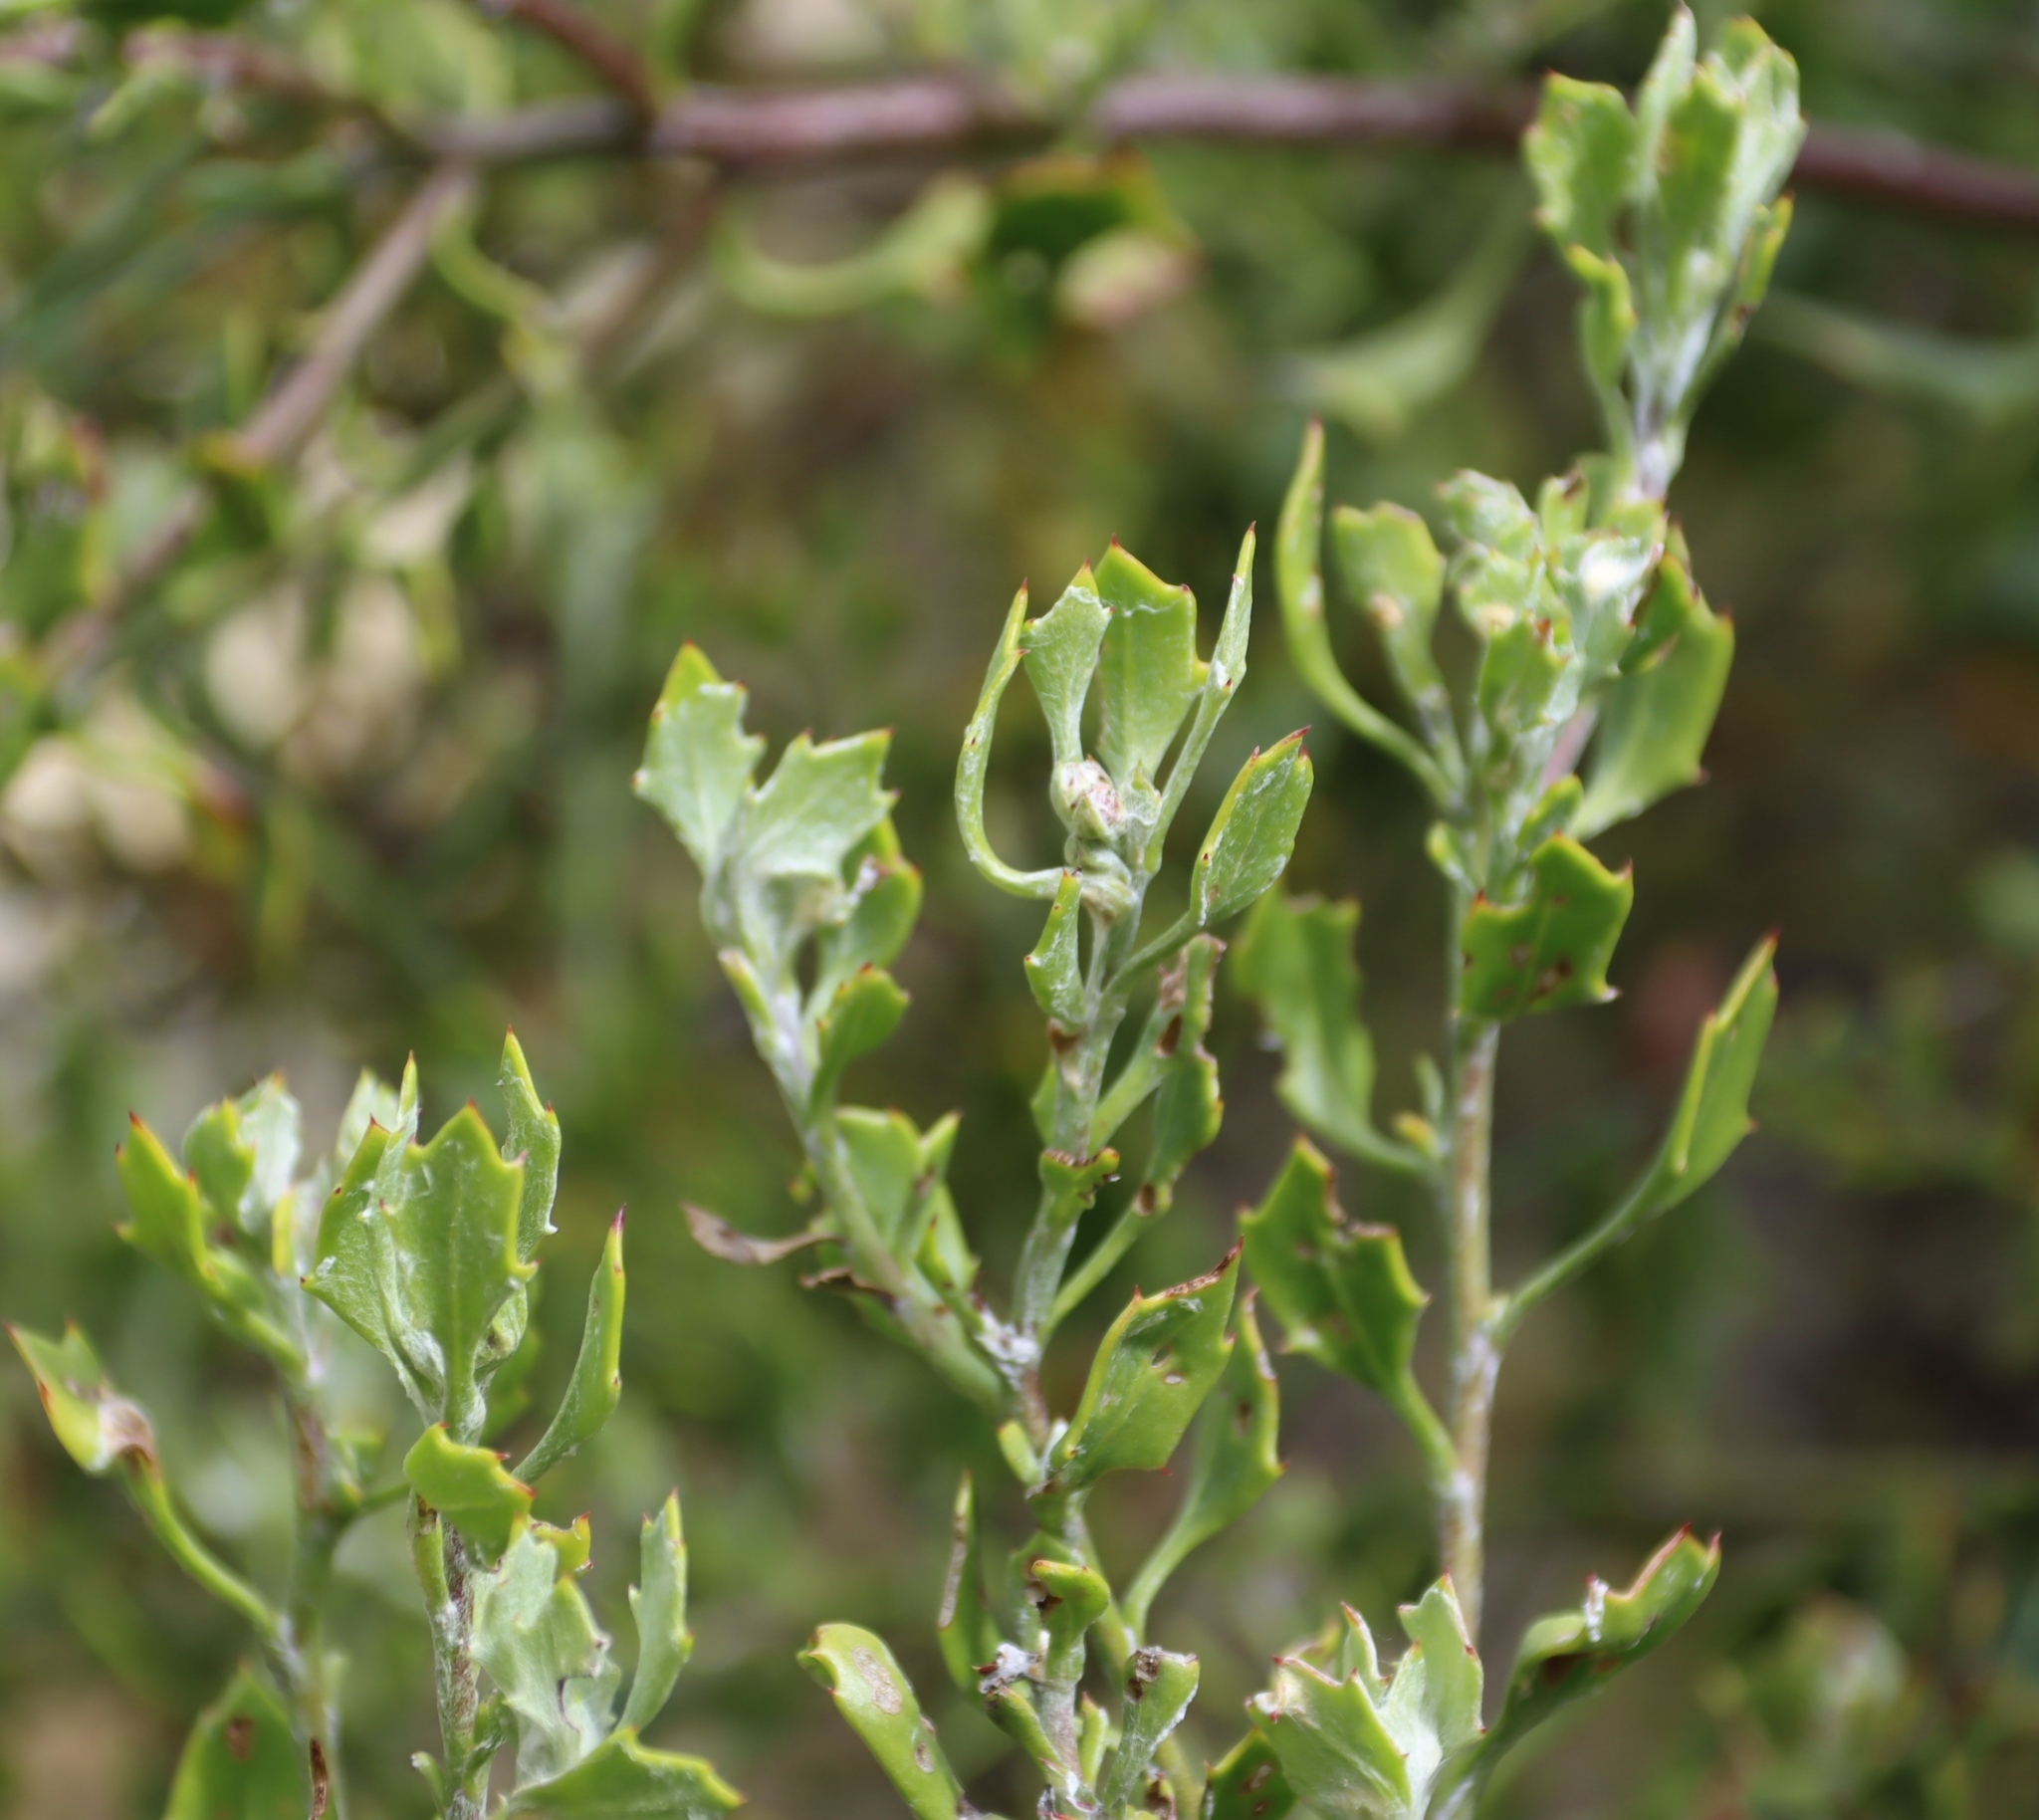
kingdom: Plantae
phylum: Tracheophyta
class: Magnoliopsida
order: Asterales
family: Asteraceae
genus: Osteospermum
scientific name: Osteospermum moniliferum
